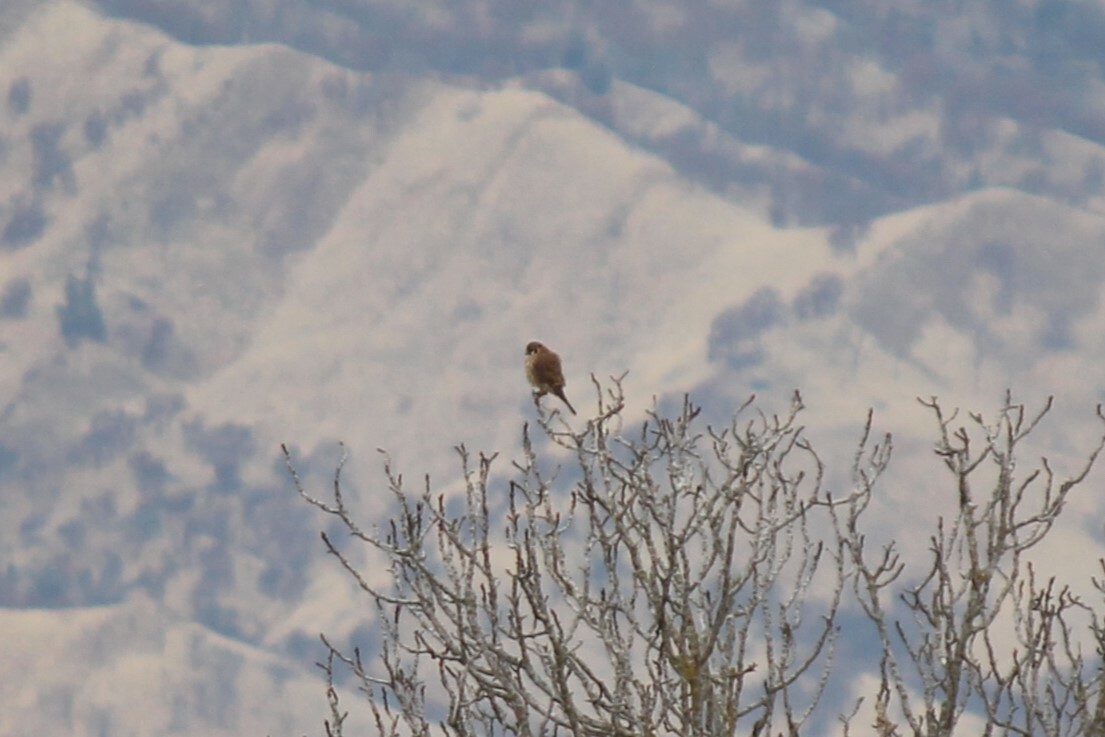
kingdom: Animalia
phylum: Chordata
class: Aves
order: Falconiformes
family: Falconidae
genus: Falco
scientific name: Falco sparverius
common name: American kestrel
